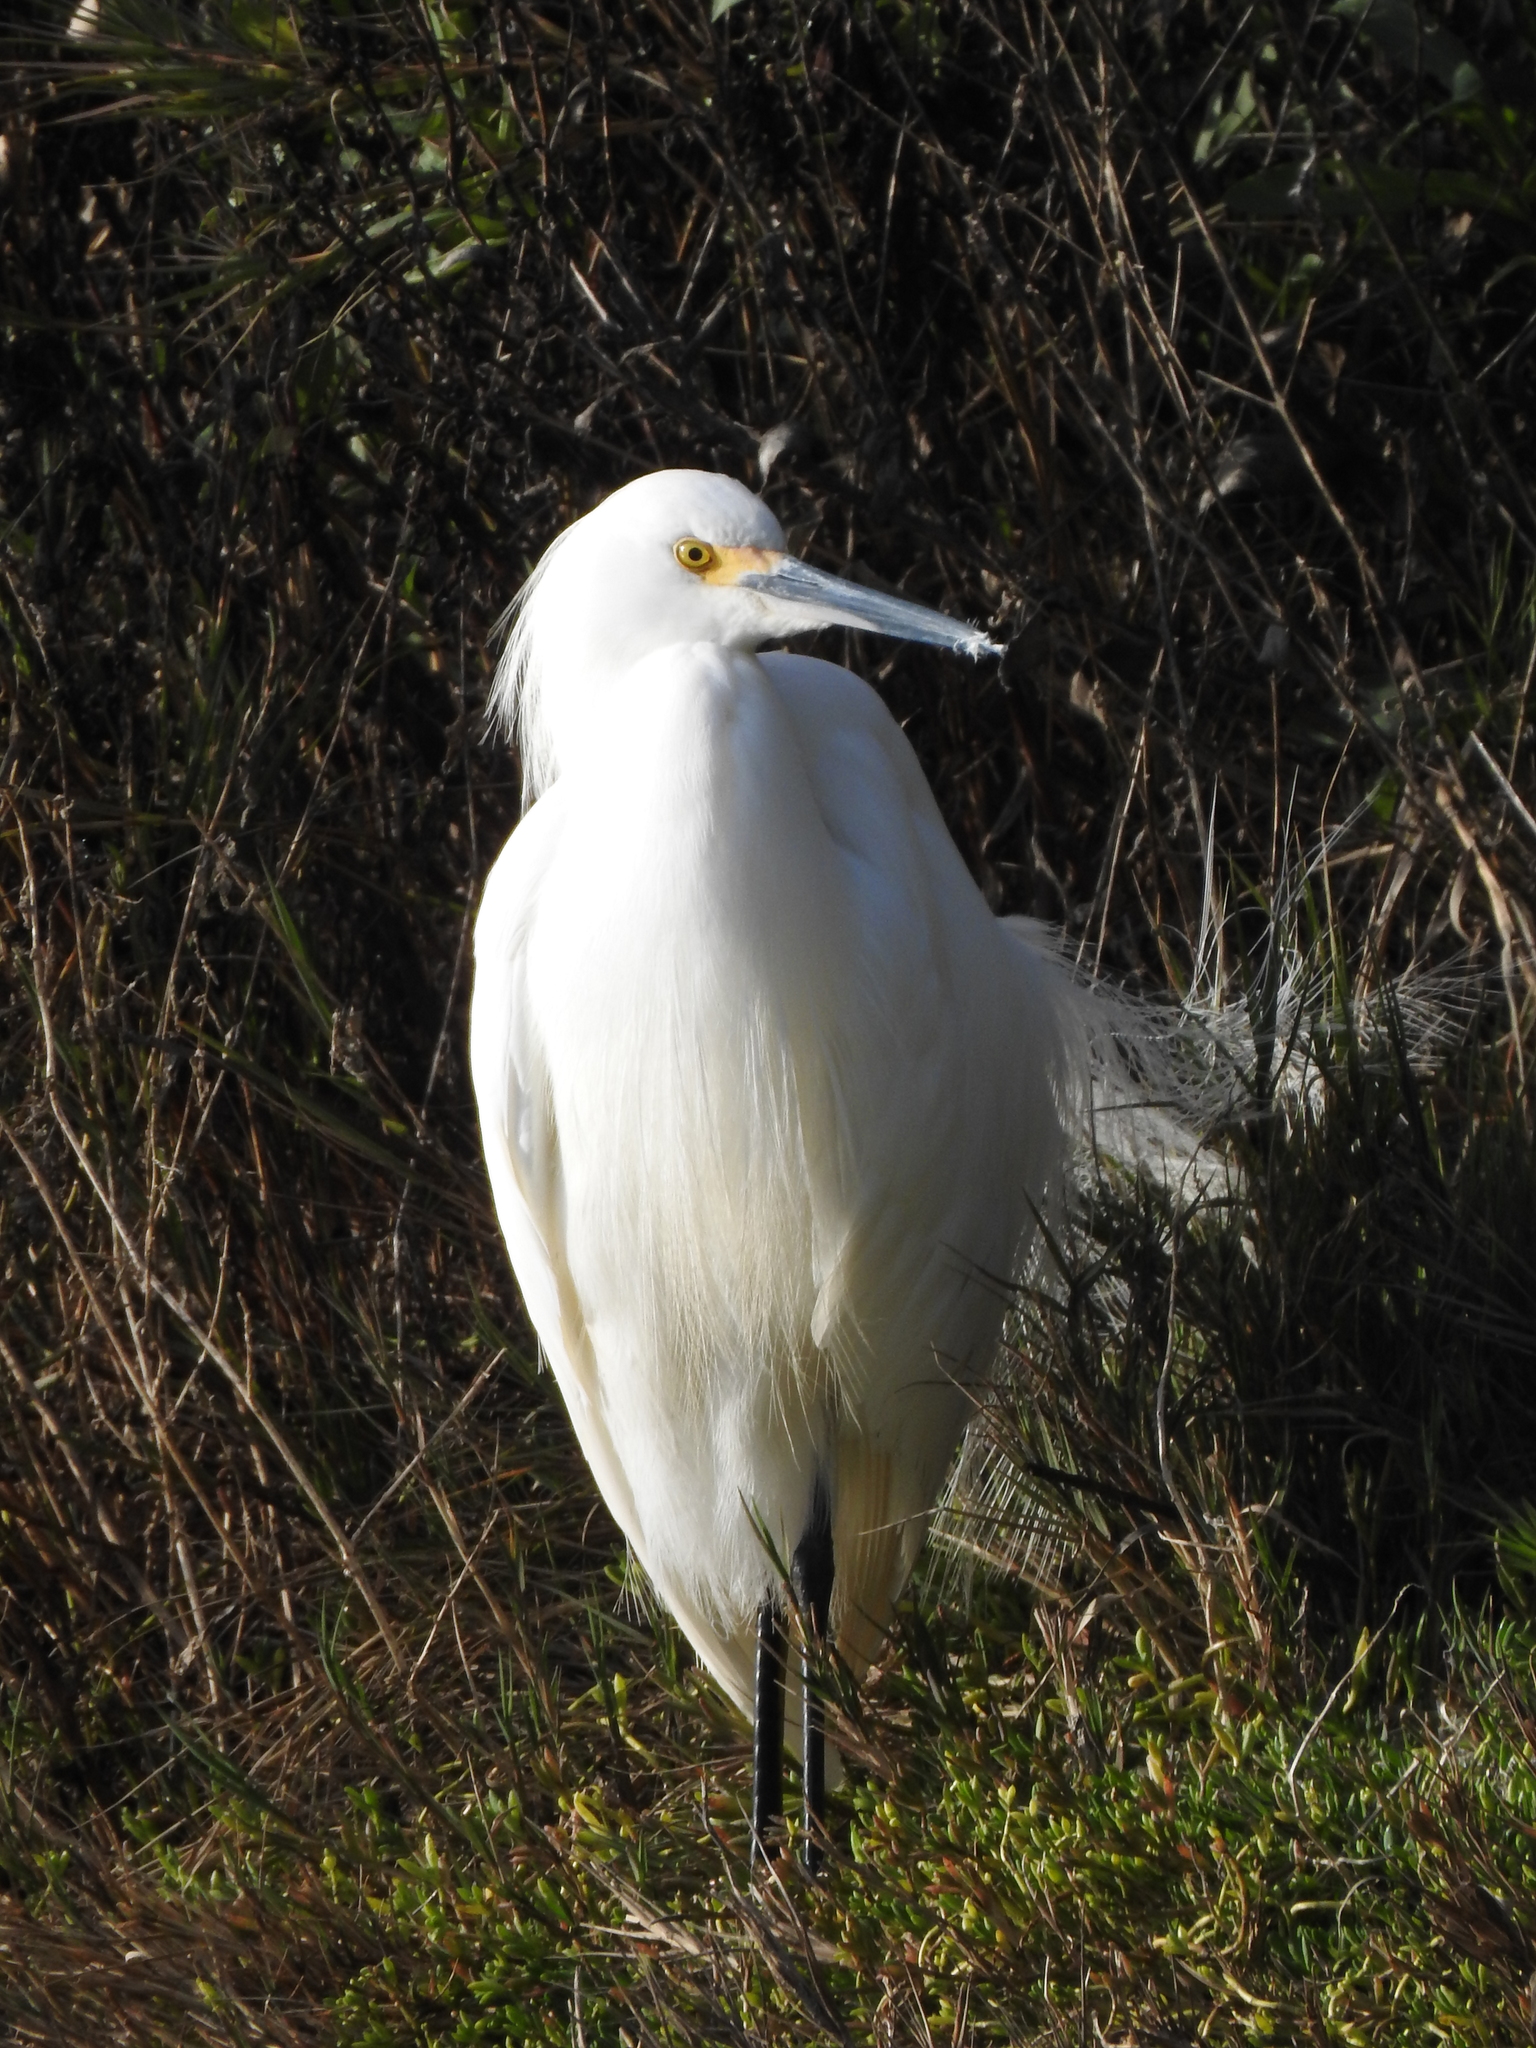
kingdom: Animalia
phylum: Chordata
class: Aves
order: Pelecaniformes
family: Ardeidae
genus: Egretta
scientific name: Egretta thula
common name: Snowy egret
